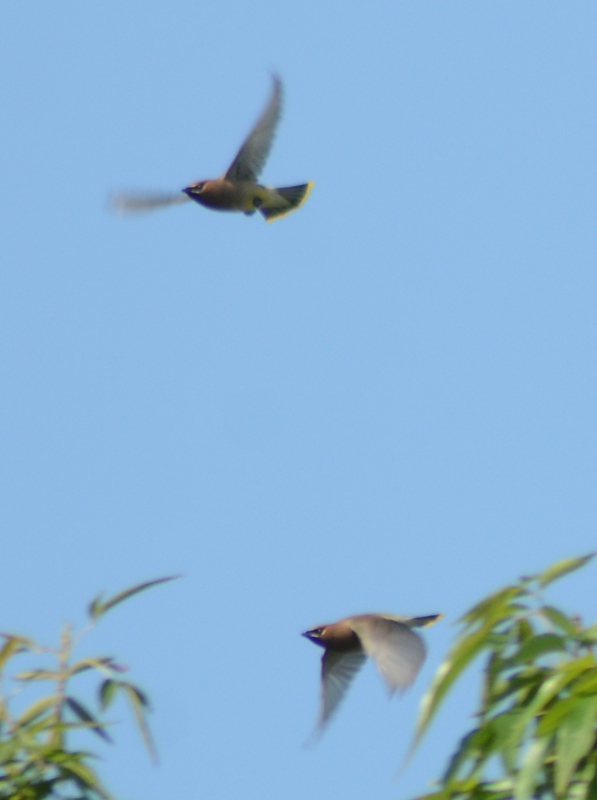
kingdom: Animalia
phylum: Chordata
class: Aves
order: Passeriformes
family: Bombycillidae
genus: Bombycilla
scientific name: Bombycilla cedrorum
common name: Cedar waxwing
